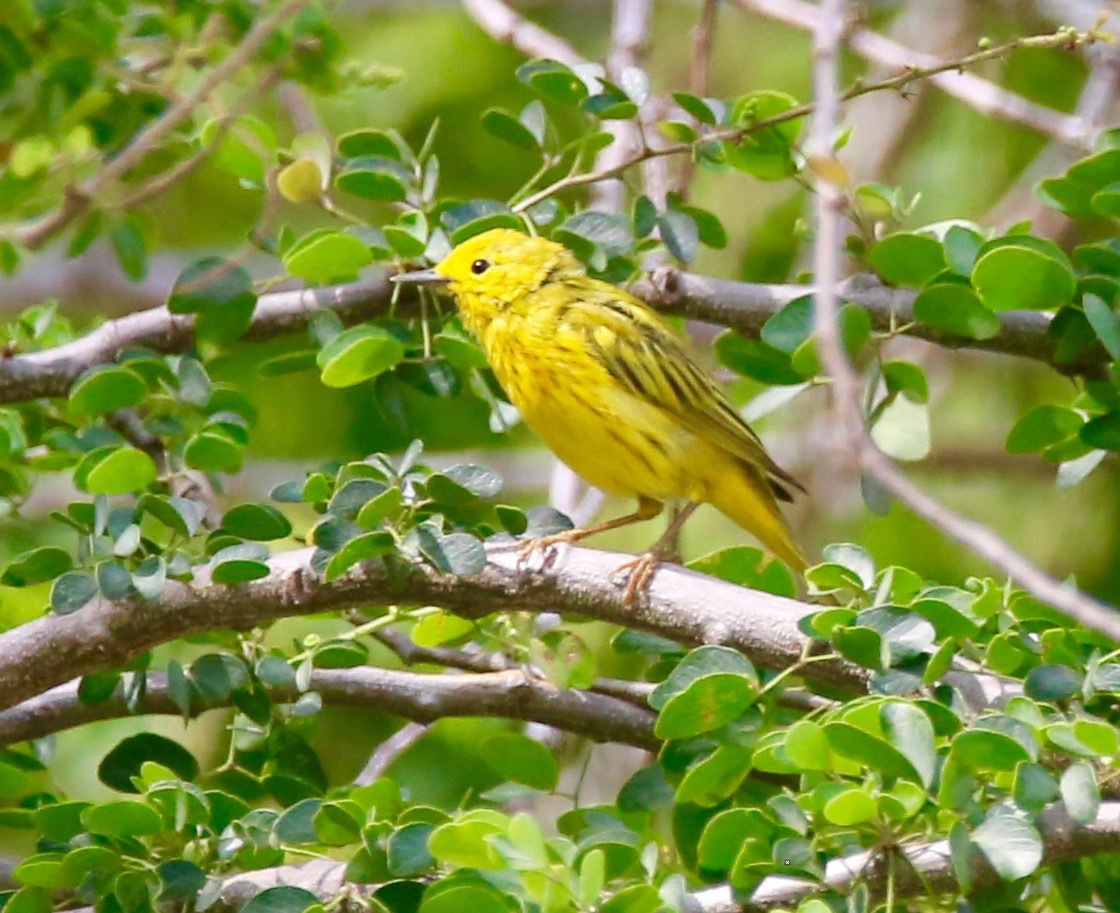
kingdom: Animalia
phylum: Chordata
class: Aves
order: Passeriformes
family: Parulidae
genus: Setophaga
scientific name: Setophaga petechia
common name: Yellow warbler
